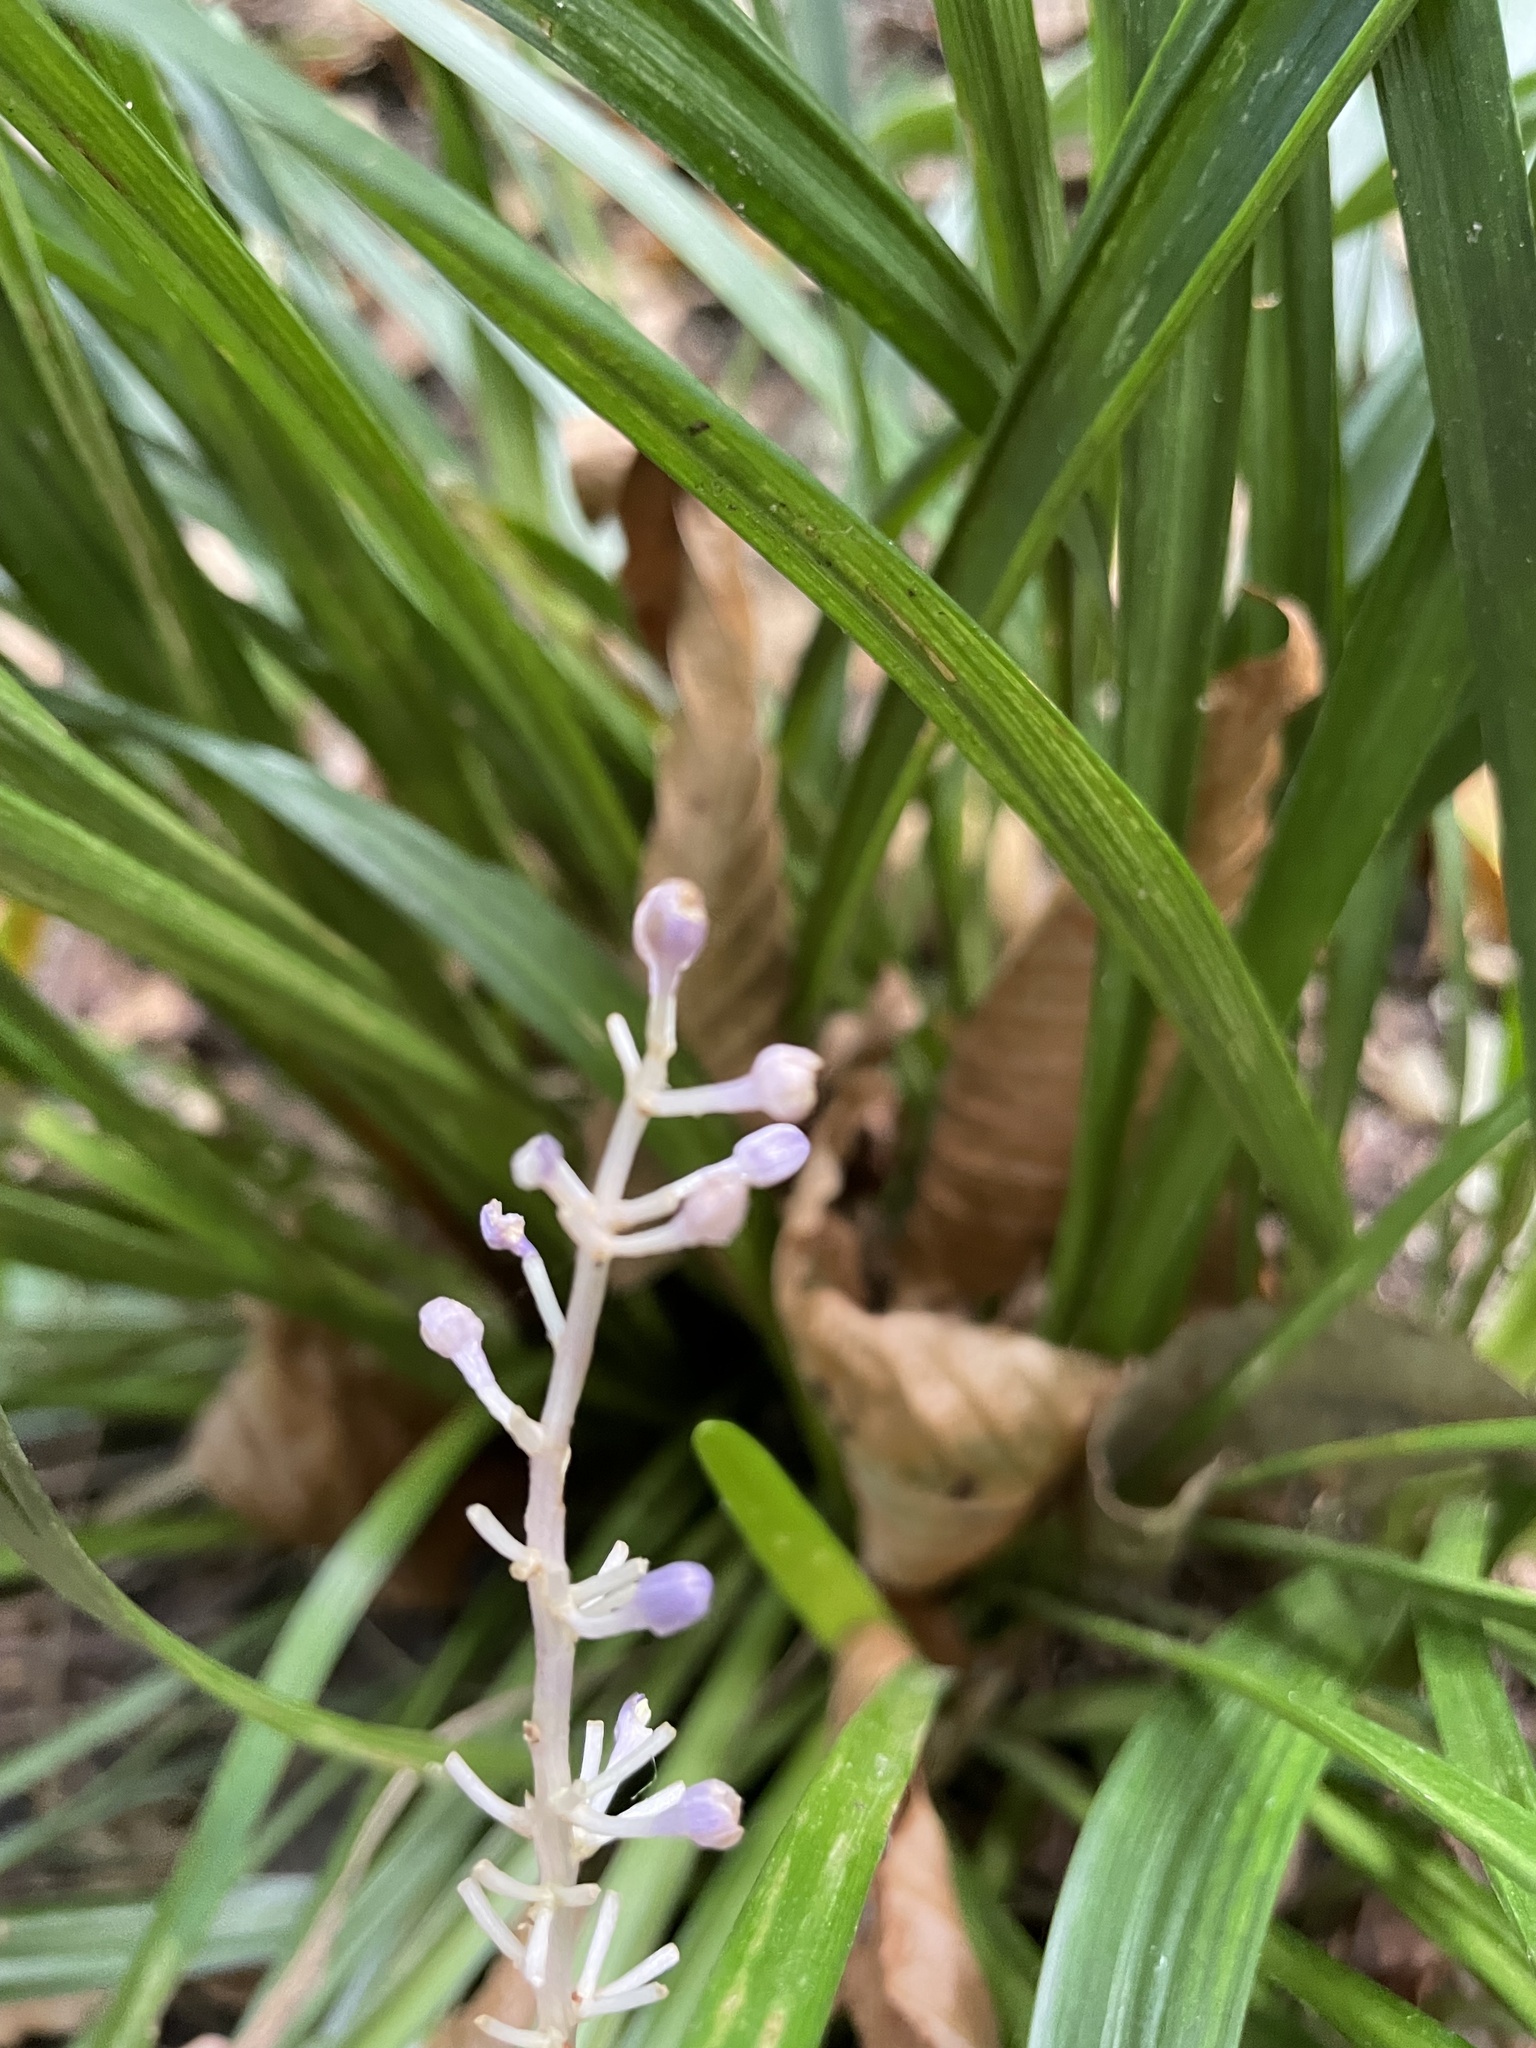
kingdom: Plantae
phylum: Tracheophyta
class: Liliopsida
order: Asparagales
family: Asparagaceae
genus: Liriope
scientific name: Liriope muscari
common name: Big blue lilyturf
